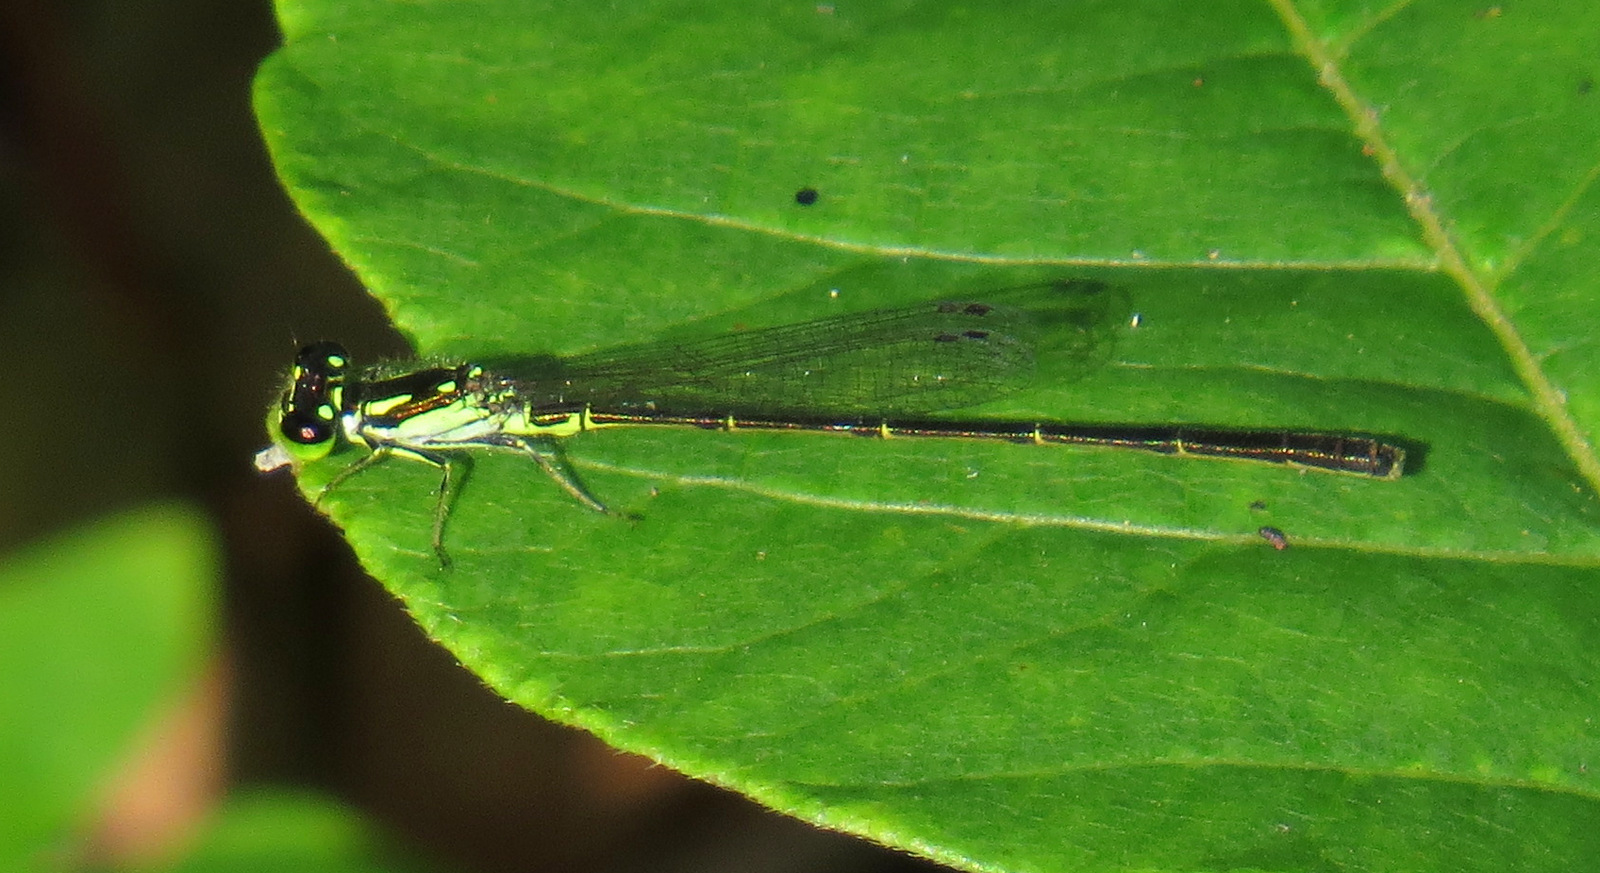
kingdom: Animalia
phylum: Arthropoda
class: Insecta
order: Odonata
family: Coenagrionidae
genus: Ischnura
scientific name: Ischnura posita
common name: Fragile forktail
